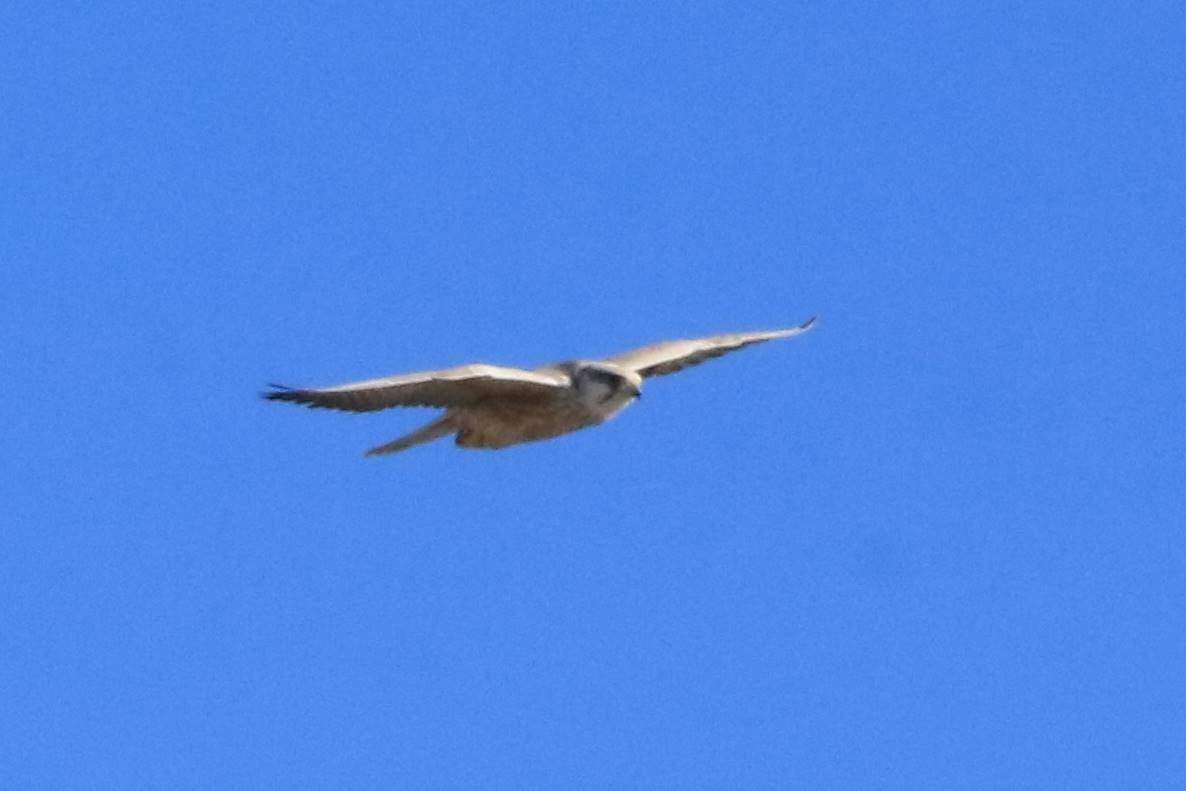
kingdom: Animalia
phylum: Chordata
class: Aves
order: Falconiformes
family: Falconidae
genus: Falco
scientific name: Falco biarmicus
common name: Lanner falcon
